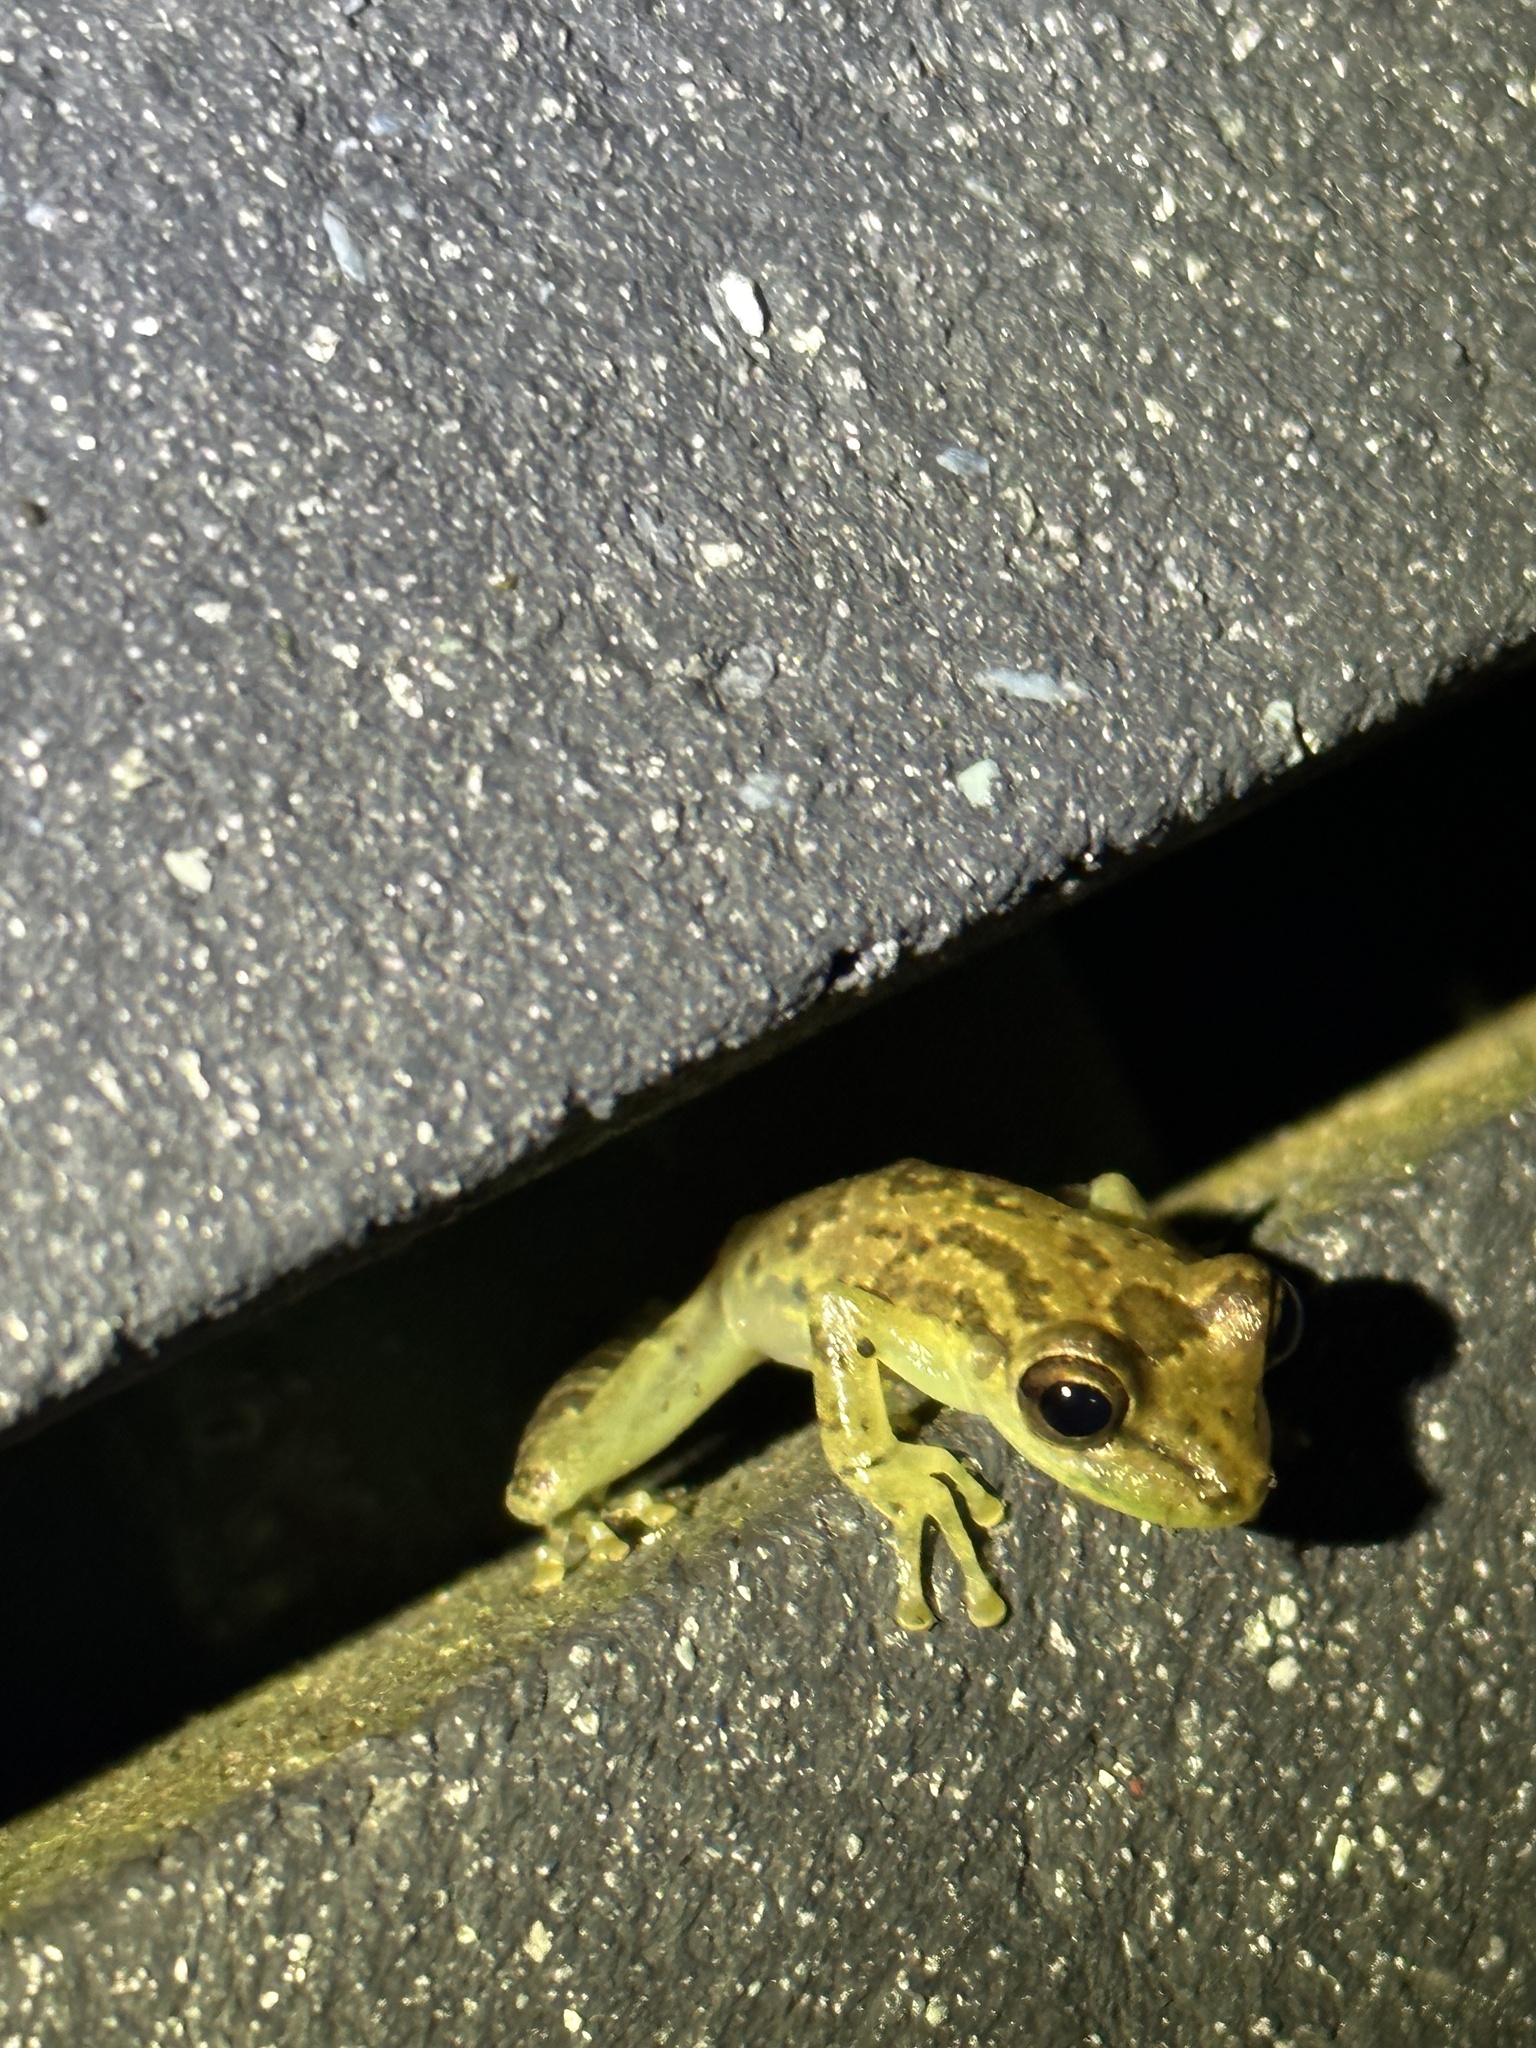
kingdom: Animalia
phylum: Chordata
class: Amphibia
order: Anura
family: Hylidae
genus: Scinax
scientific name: Scinax elaeochroa
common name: Sipurio snouted treefrog
